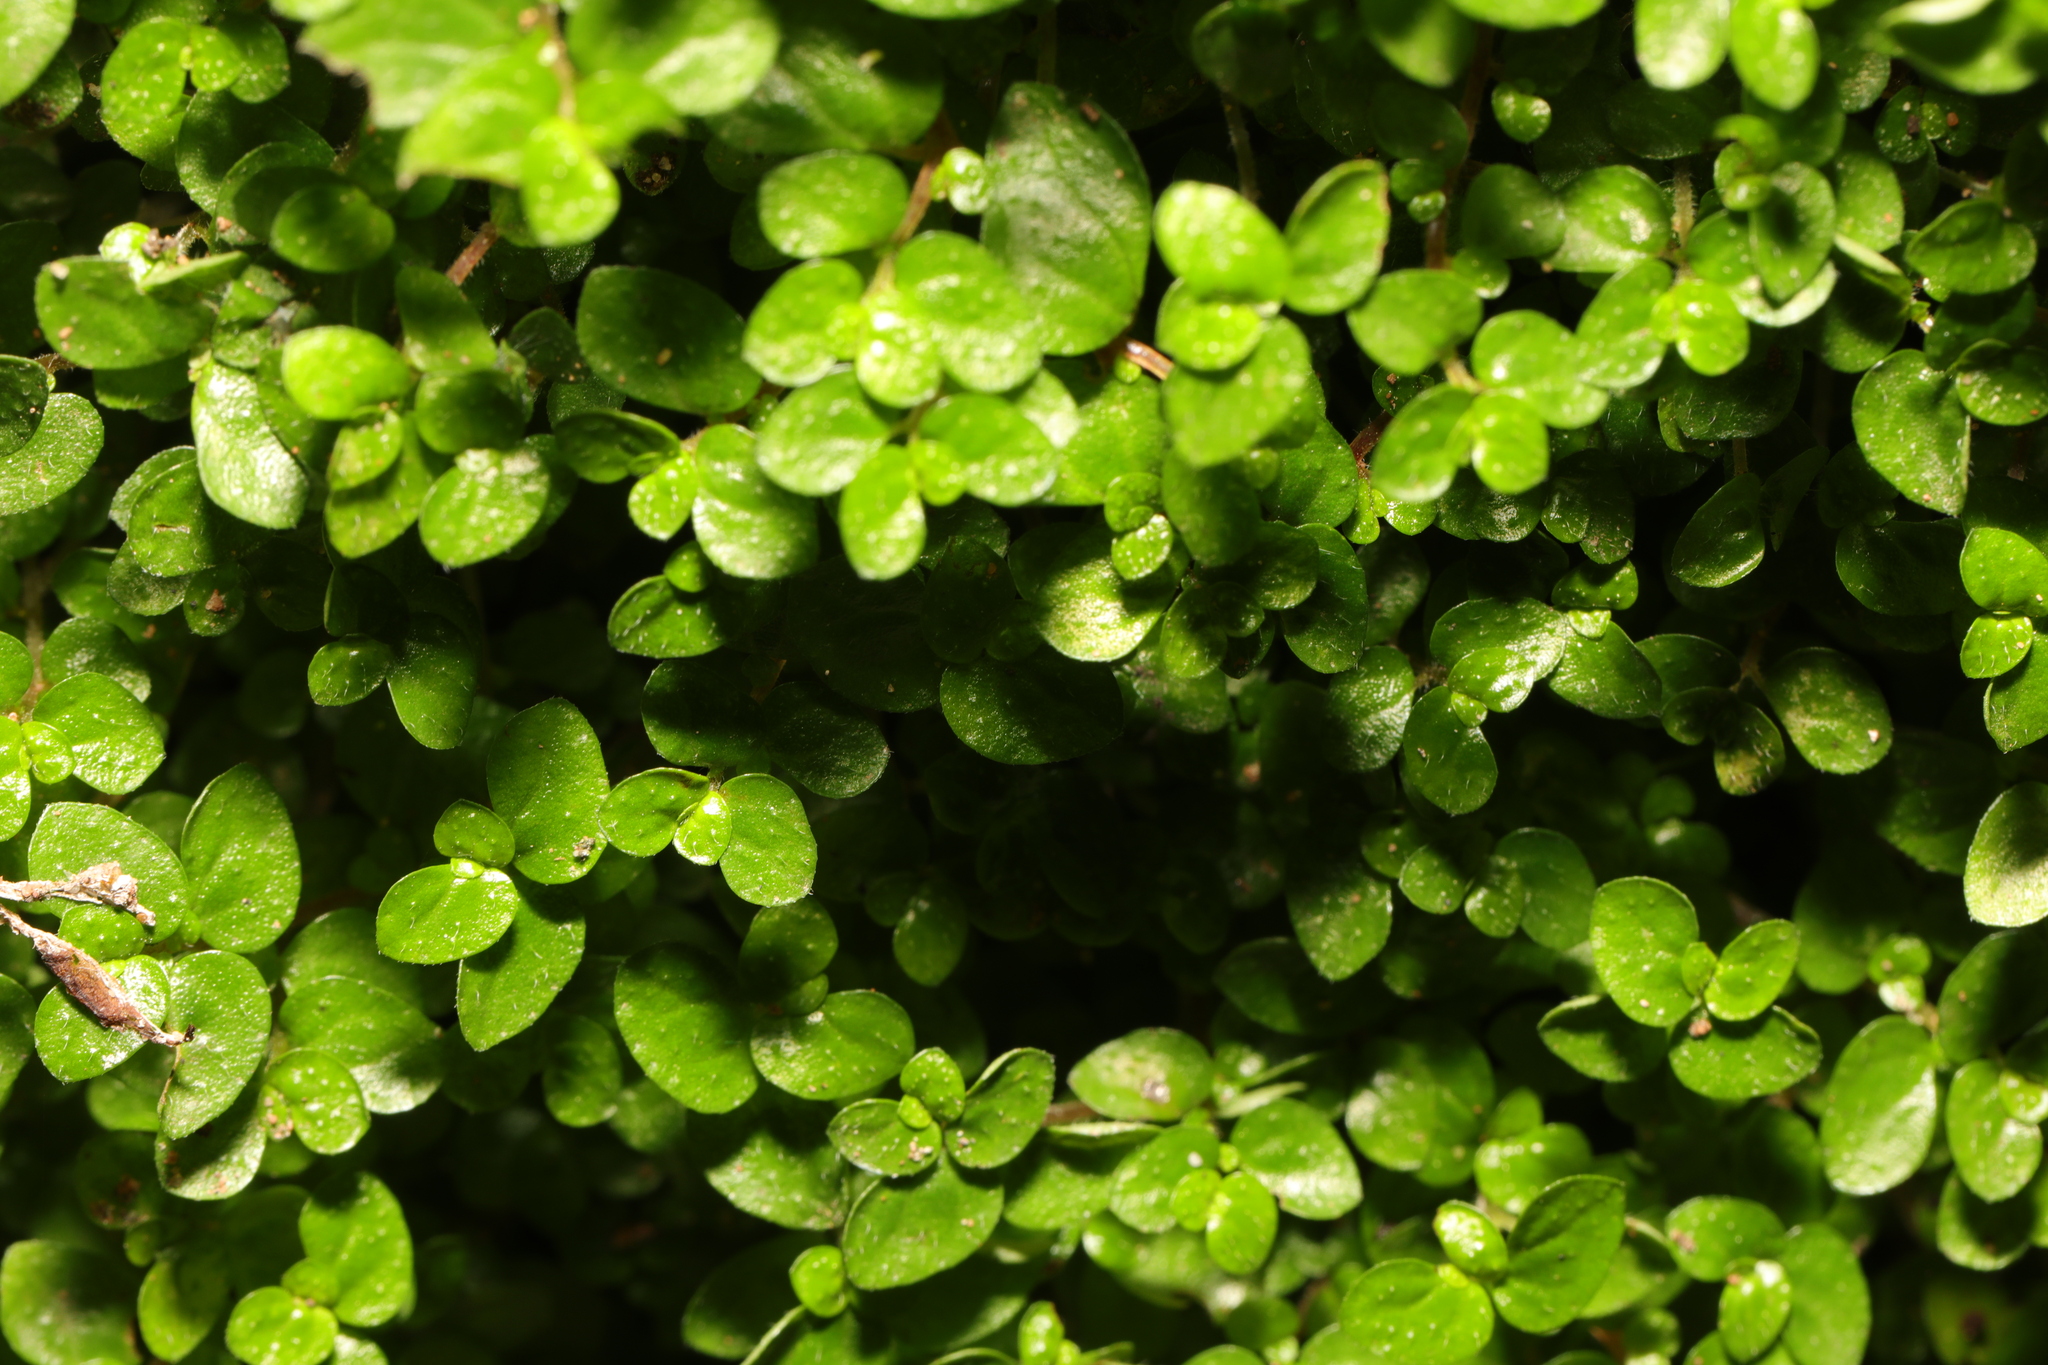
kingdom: Plantae
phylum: Tracheophyta
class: Magnoliopsida
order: Rosales
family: Urticaceae
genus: Soleirolia
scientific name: Soleirolia soleirolii
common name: Mind-your-own-business
